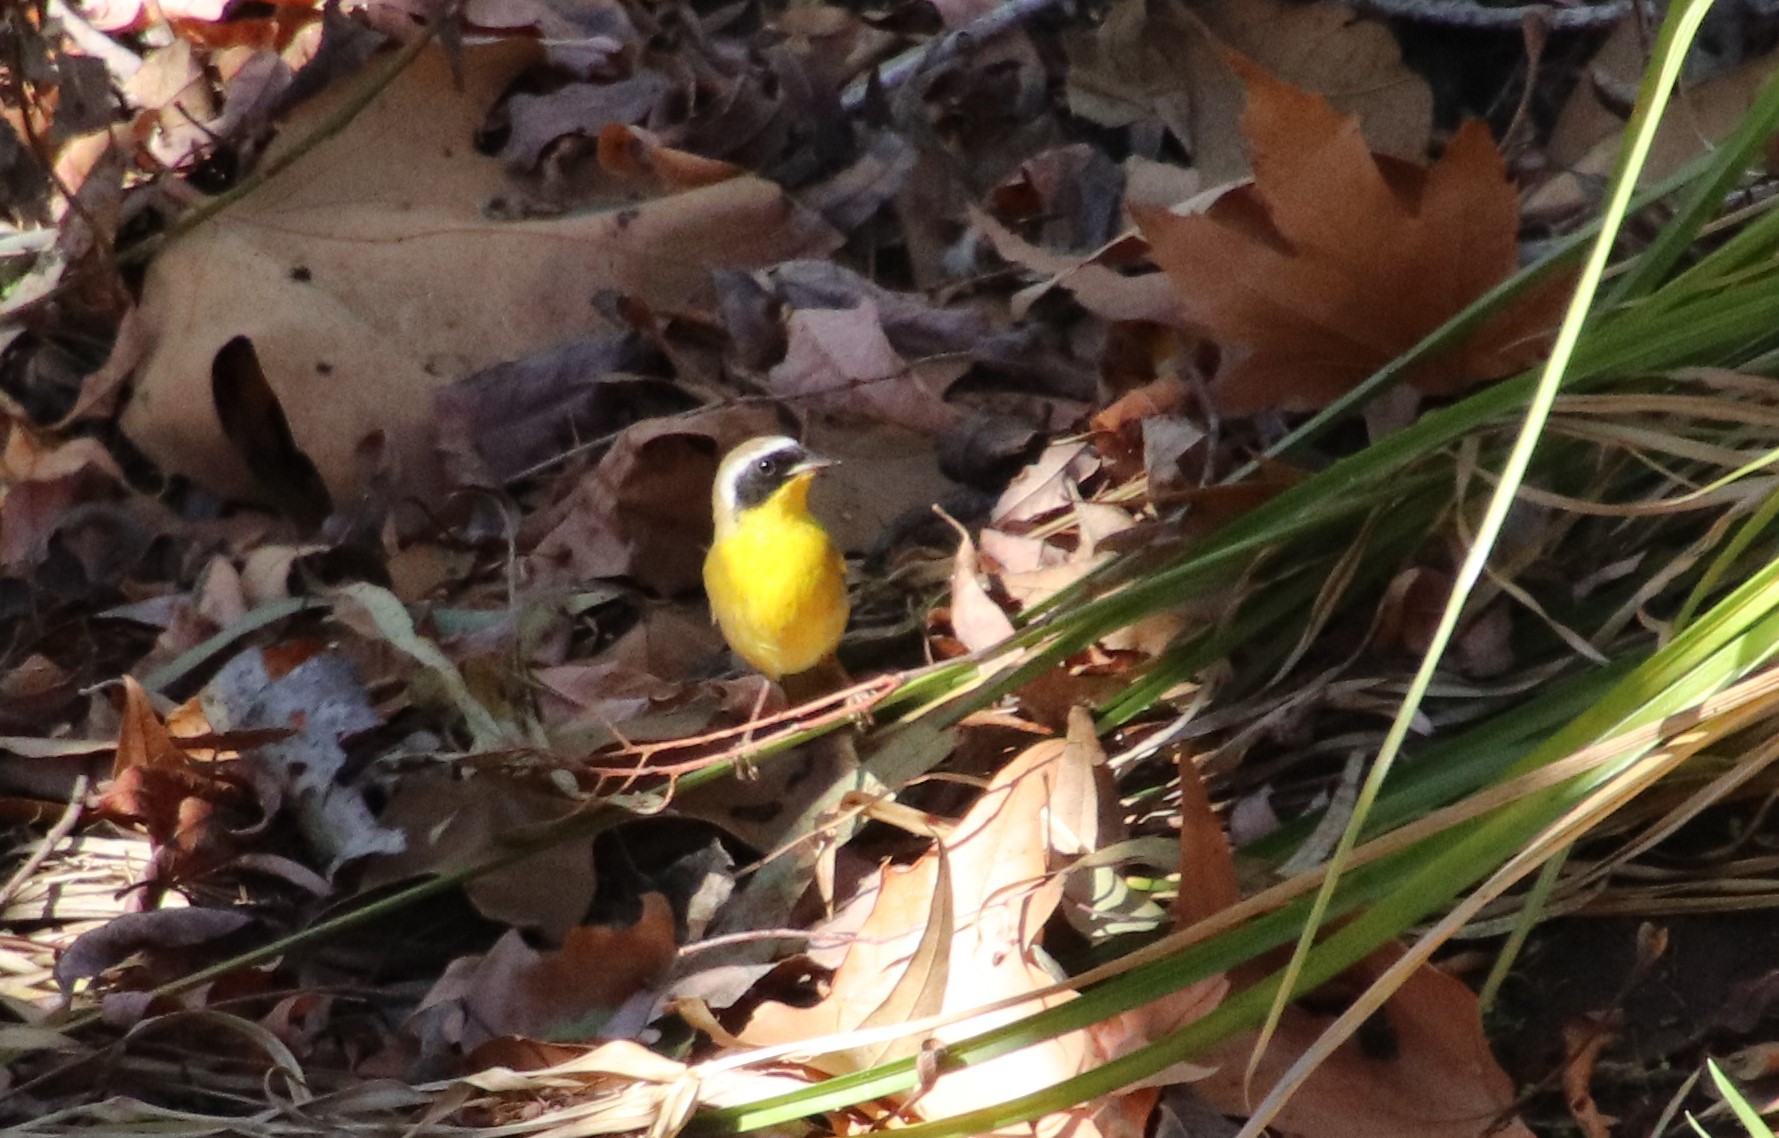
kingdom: Animalia
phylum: Chordata
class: Aves
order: Passeriformes
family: Parulidae
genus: Geothlypis
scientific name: Geothlypis trichas
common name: Common yellowthroat
